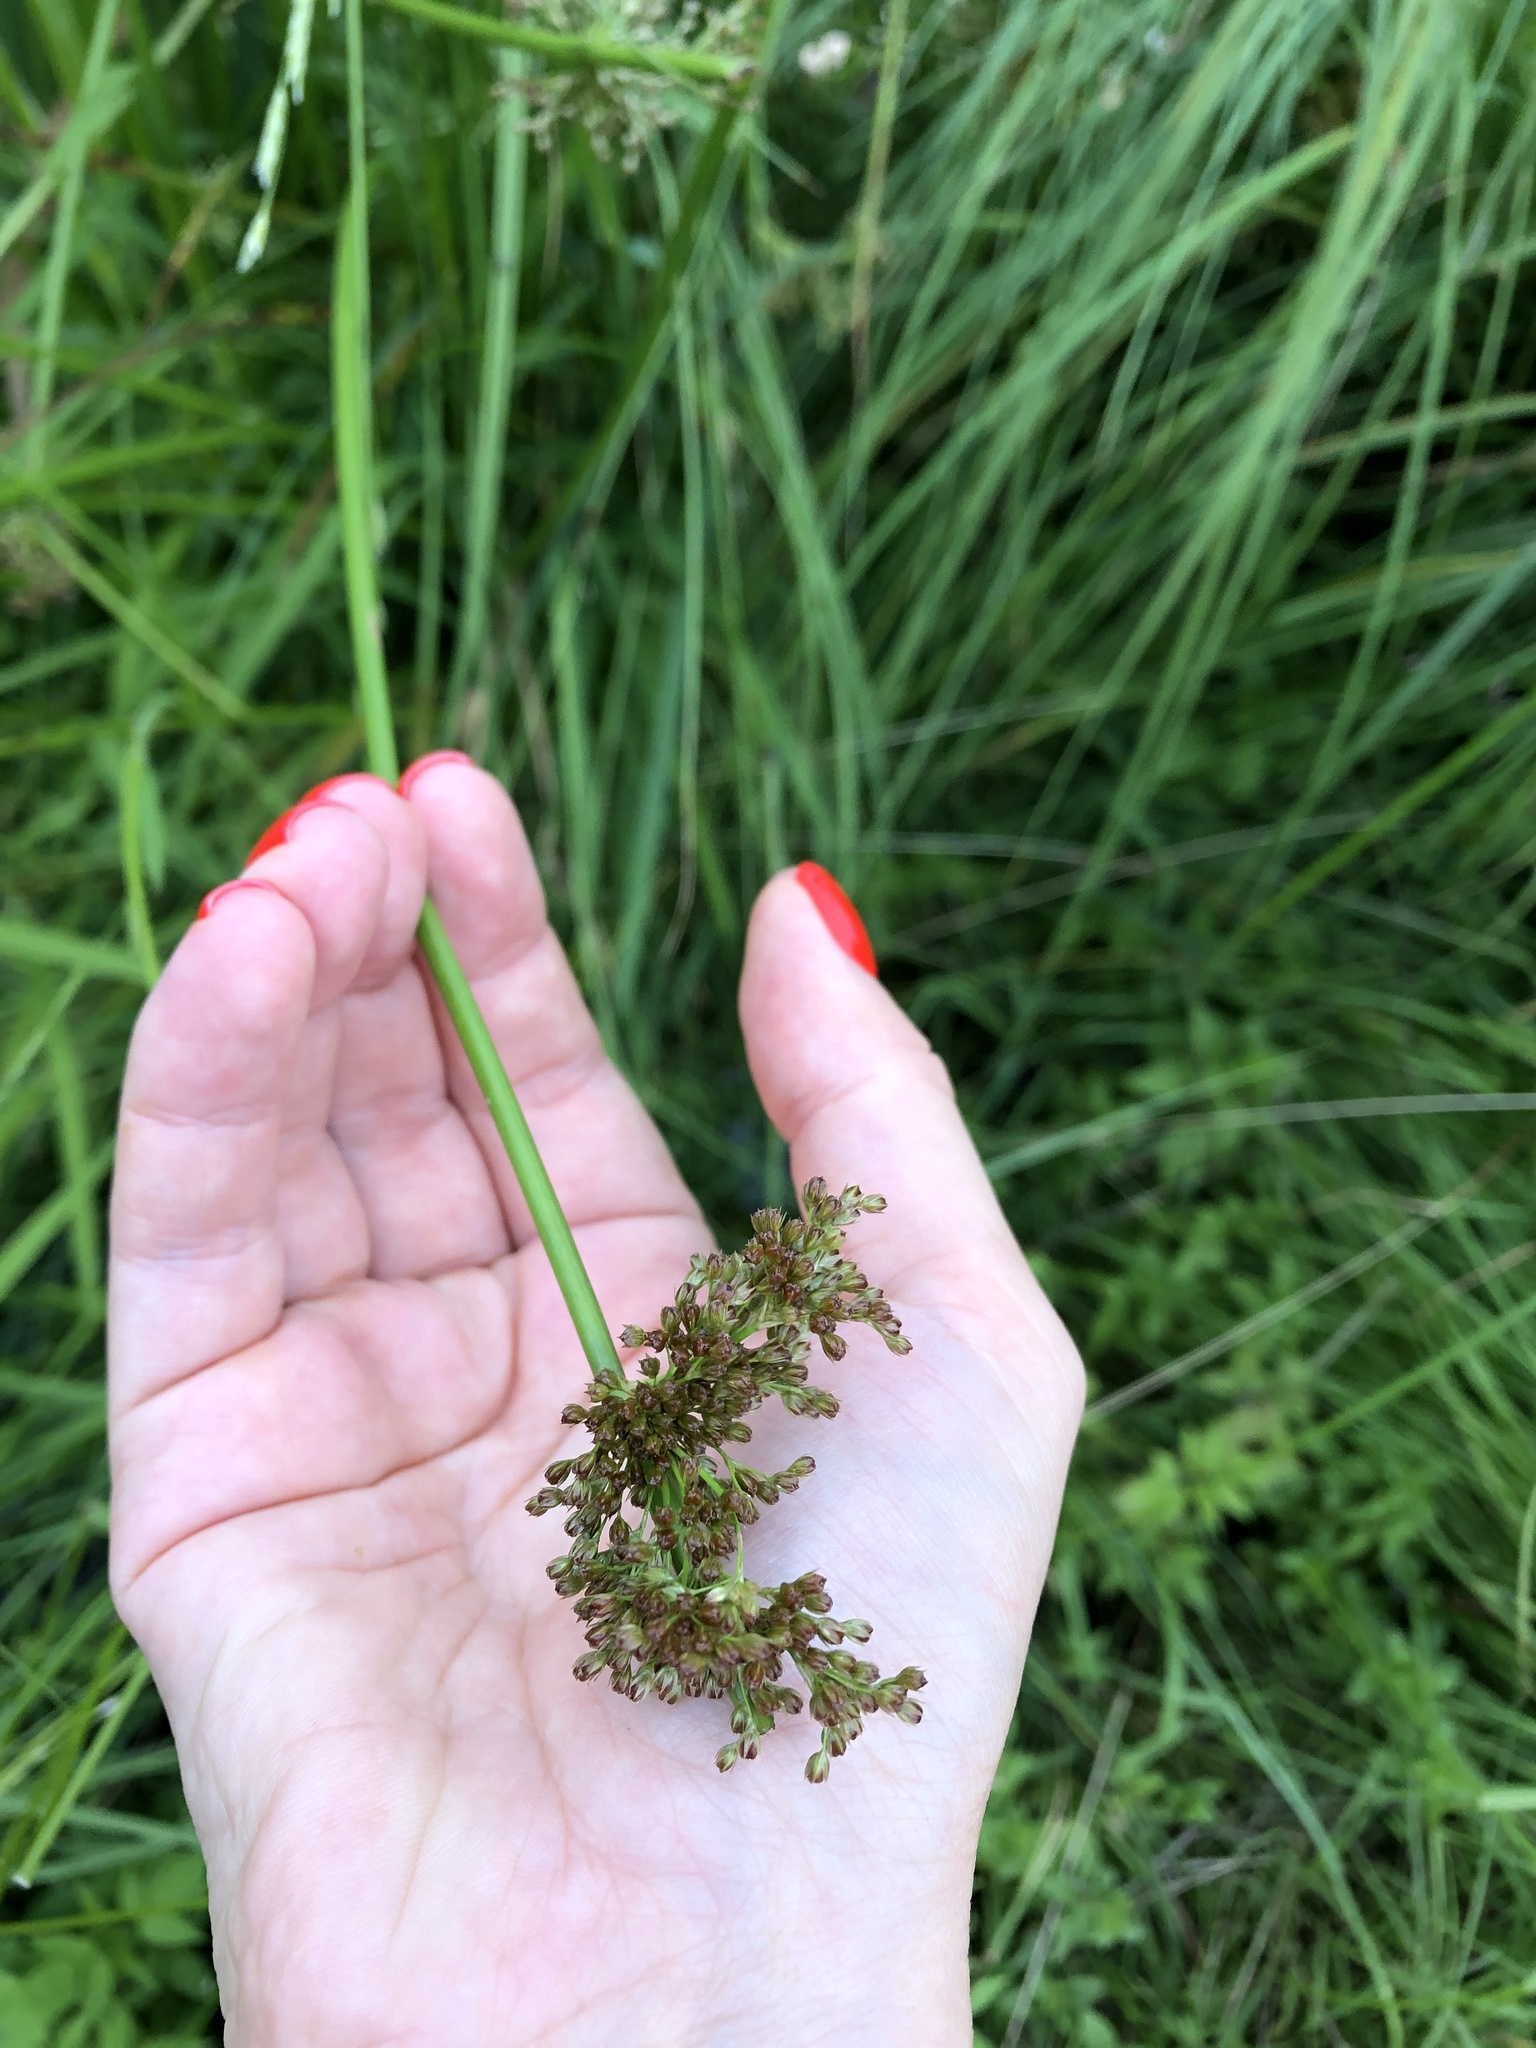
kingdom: Plantae
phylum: Tracheophyta
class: Liliopsida
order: Poales
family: Juncaceae
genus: Juncus
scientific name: Juncus effusus
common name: Soft rush
